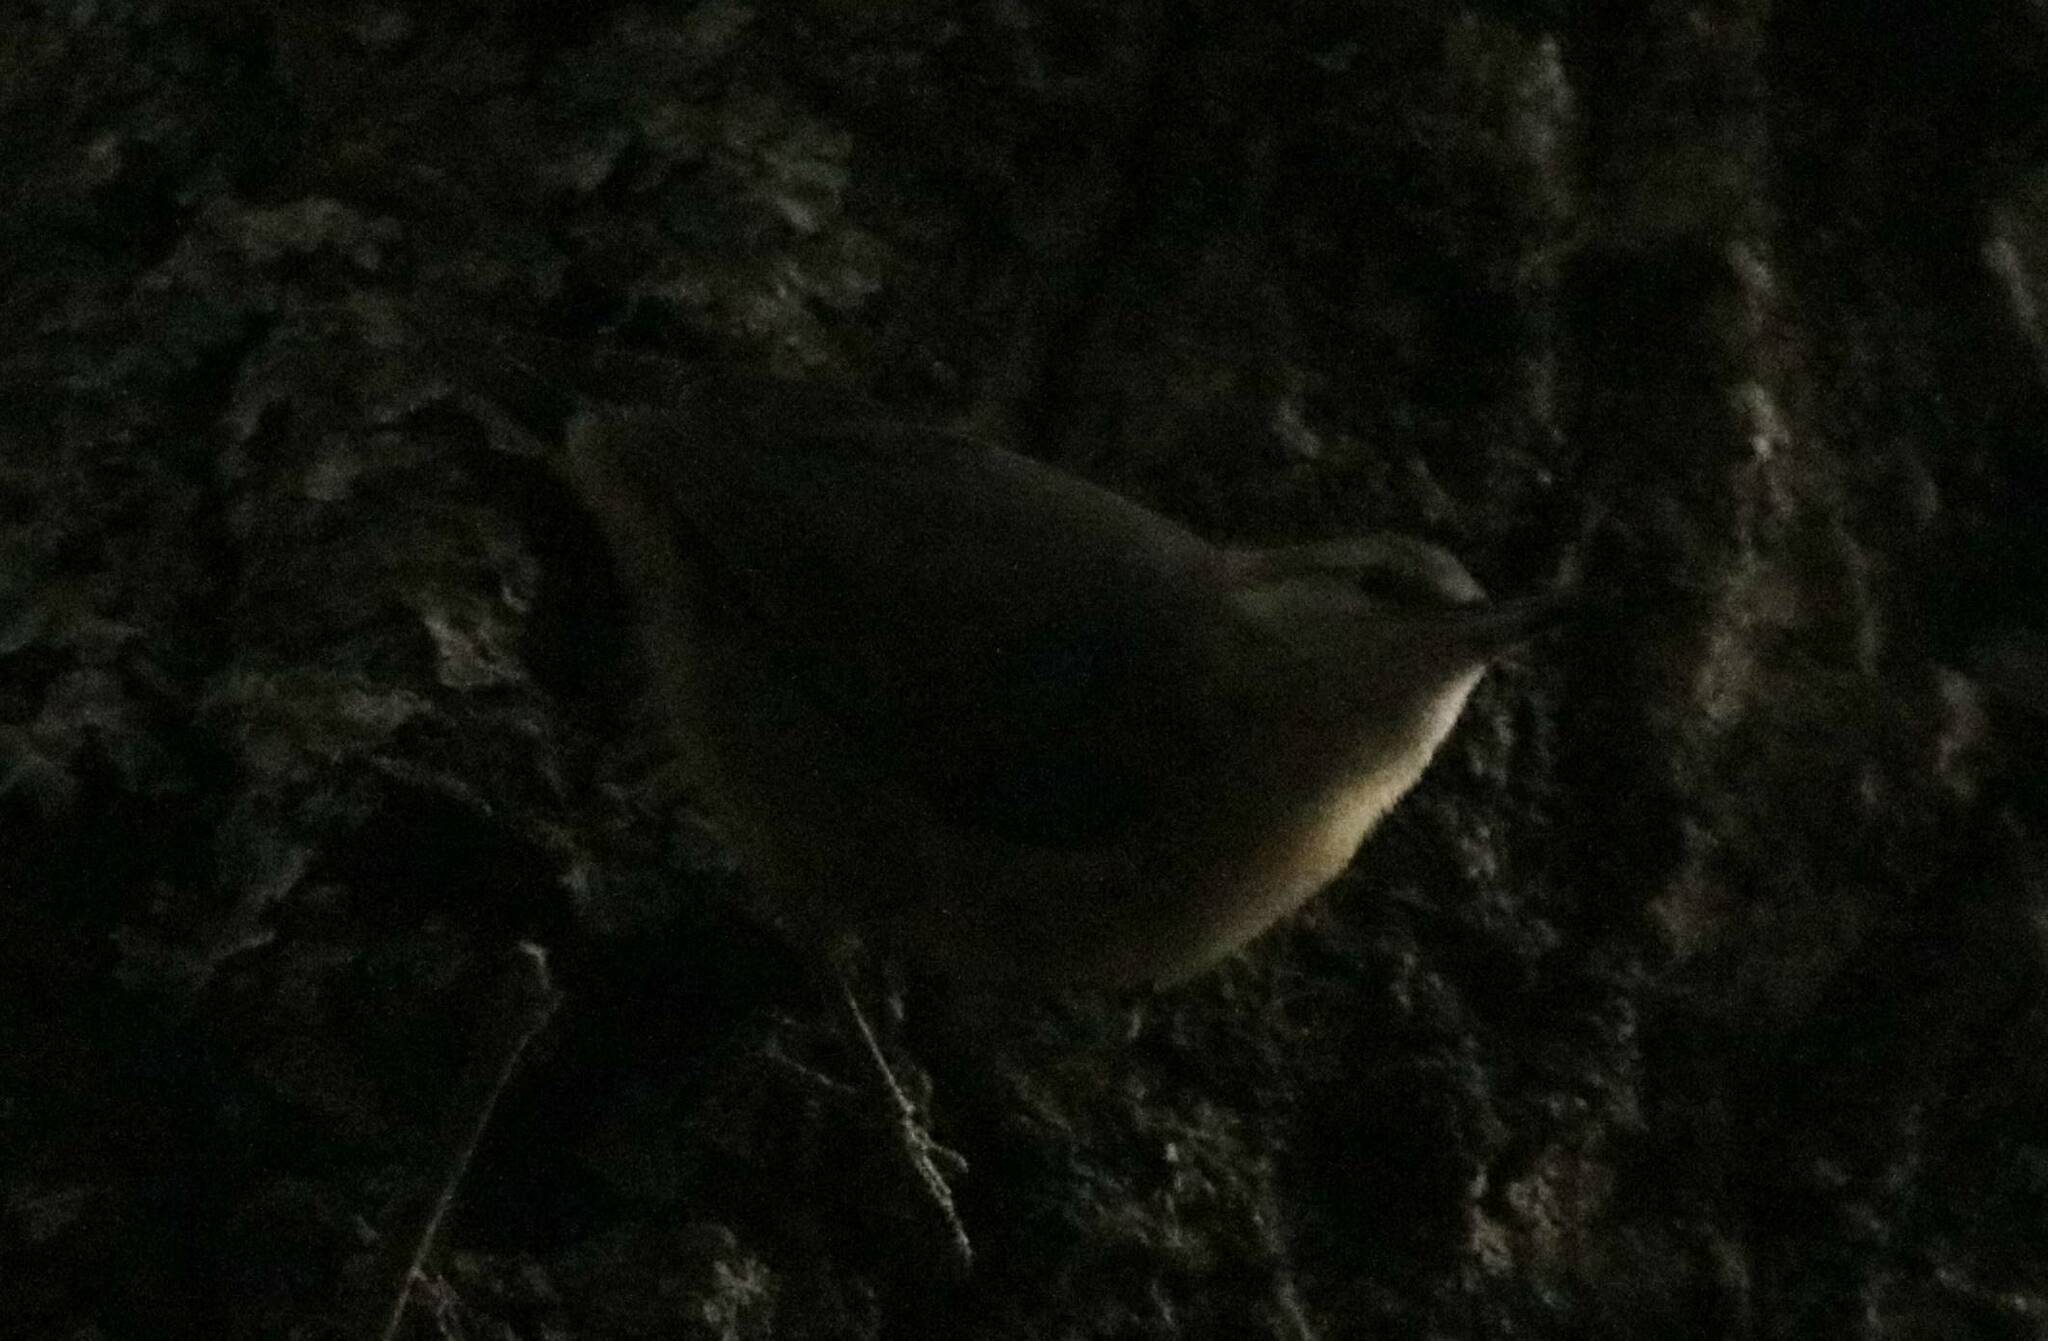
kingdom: Animalia
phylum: Chordata
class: Aves
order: Passeriformes
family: Sittidae
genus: Sitta
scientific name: Sitta ledanti
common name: Algerian nuthatch
